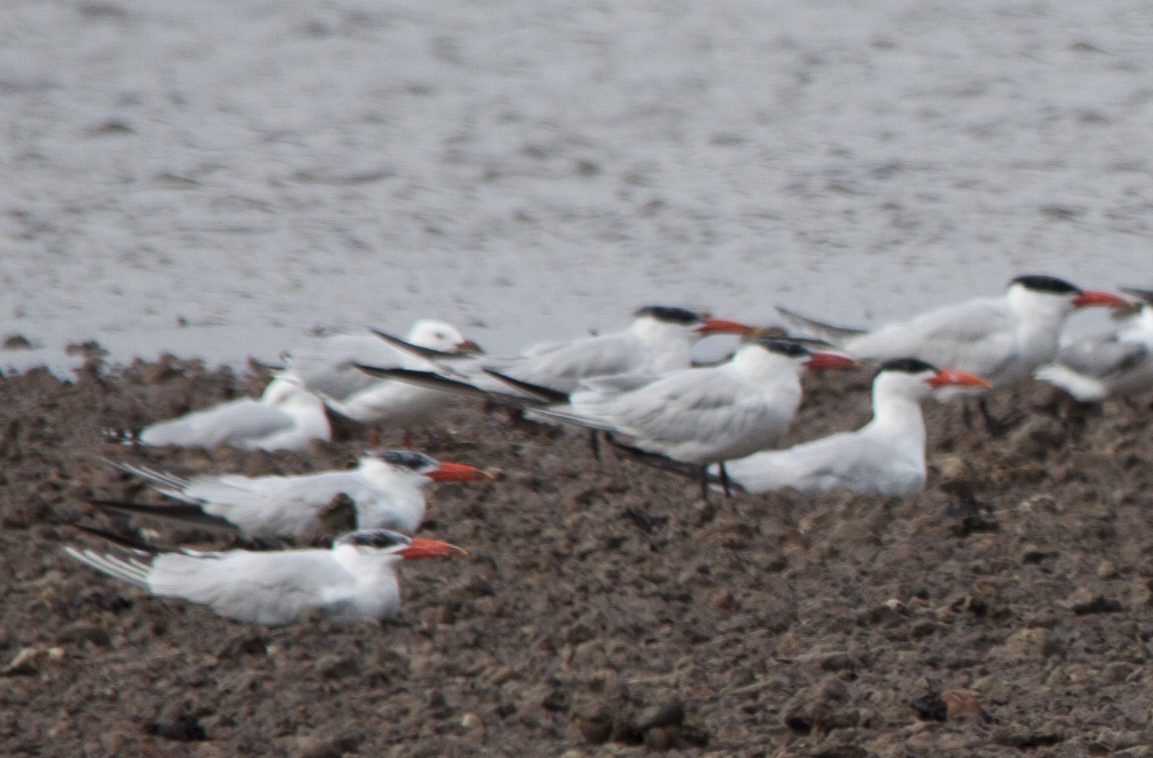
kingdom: Animalia
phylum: Chordata
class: Aves
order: Charadriiformes
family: Laridae
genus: Hydroprogne
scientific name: Hydroprogne caspia
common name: Caspian tern
